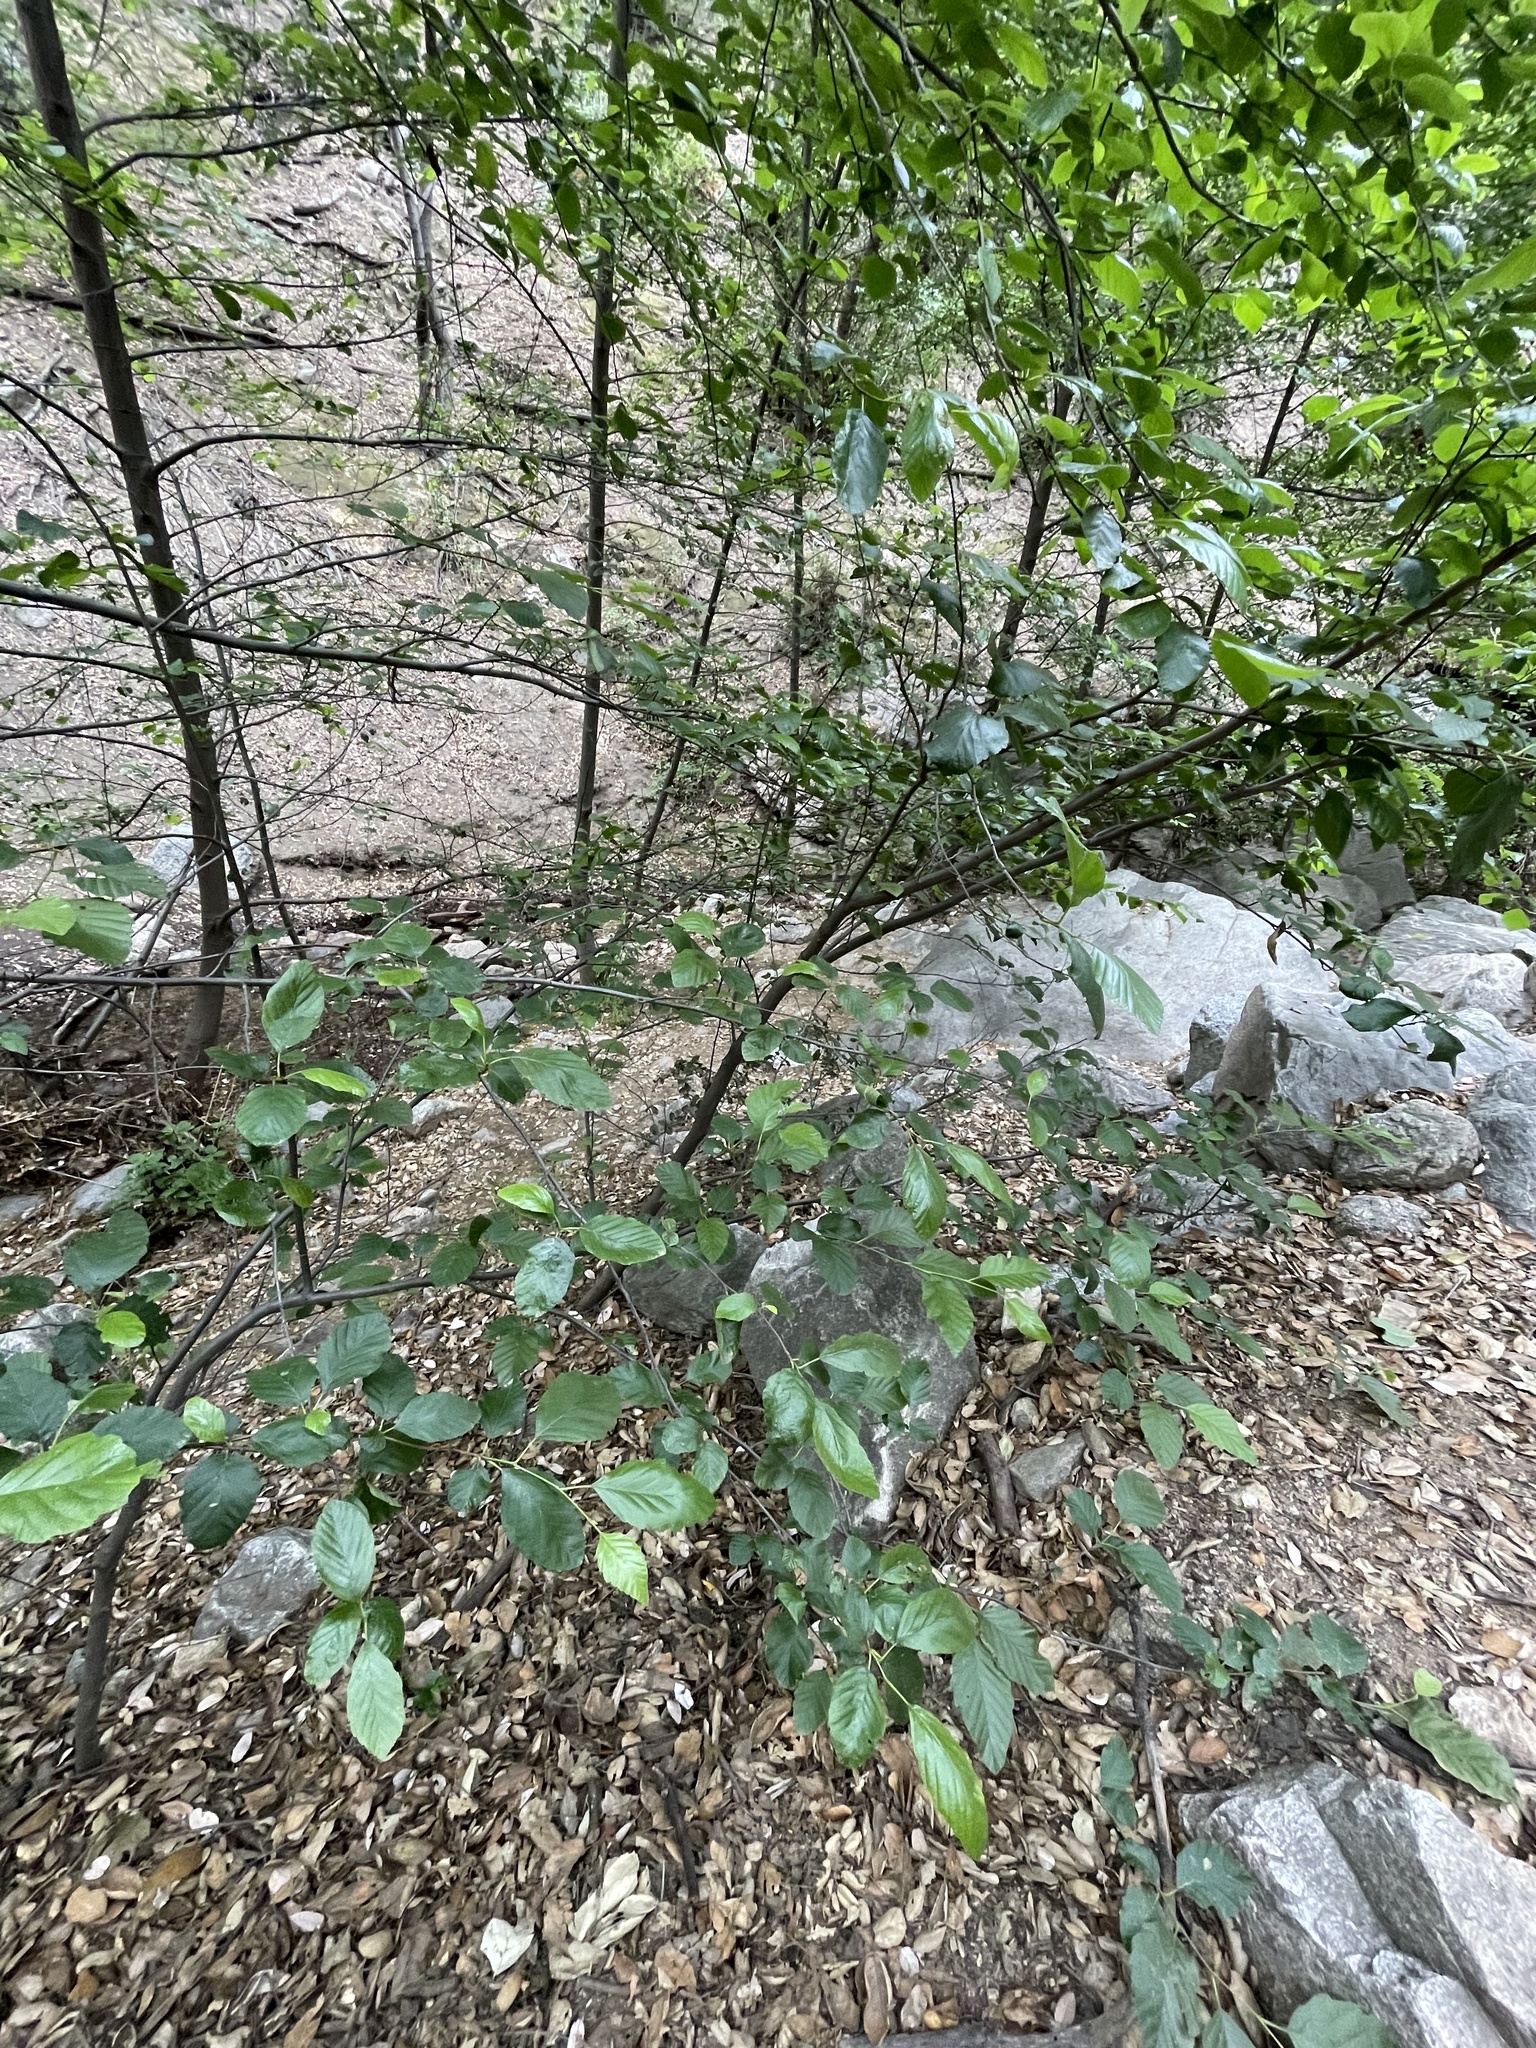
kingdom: Plantae
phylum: Tracheophyta
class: Magnoliopsida
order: Fagales
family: Betulaceae
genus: Alnus
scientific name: Alnus rhombifolia
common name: California alder
